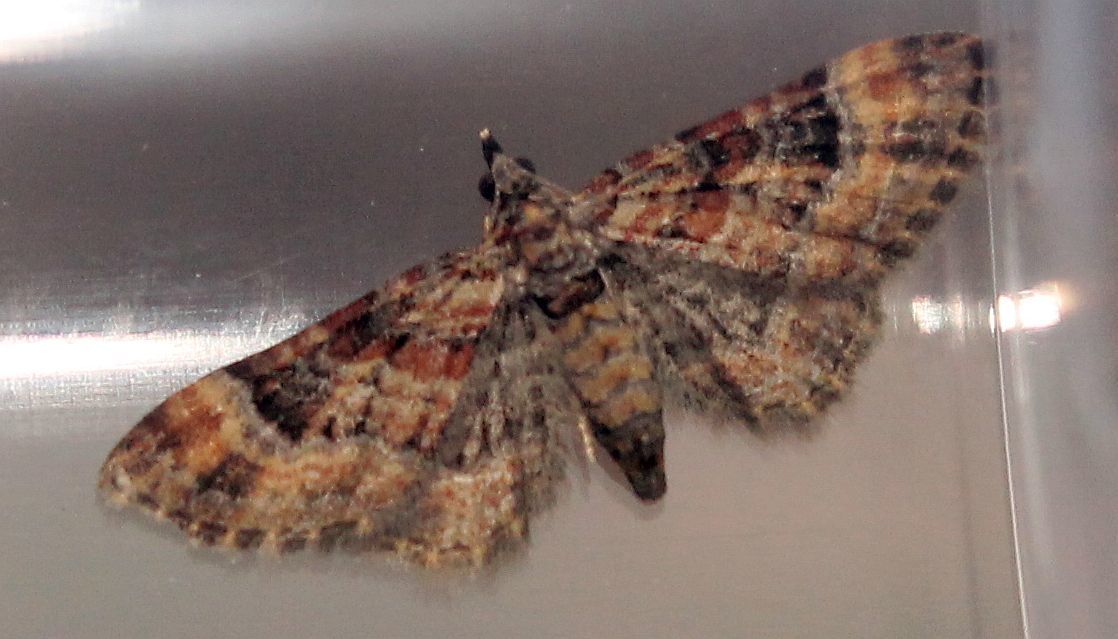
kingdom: Animalia
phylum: Arthropoda
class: Insecta
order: Lepidoptera
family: Geometridae
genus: Gymnoscelis
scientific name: Gymnoscelis rufifasciata
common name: Double-striped pug
